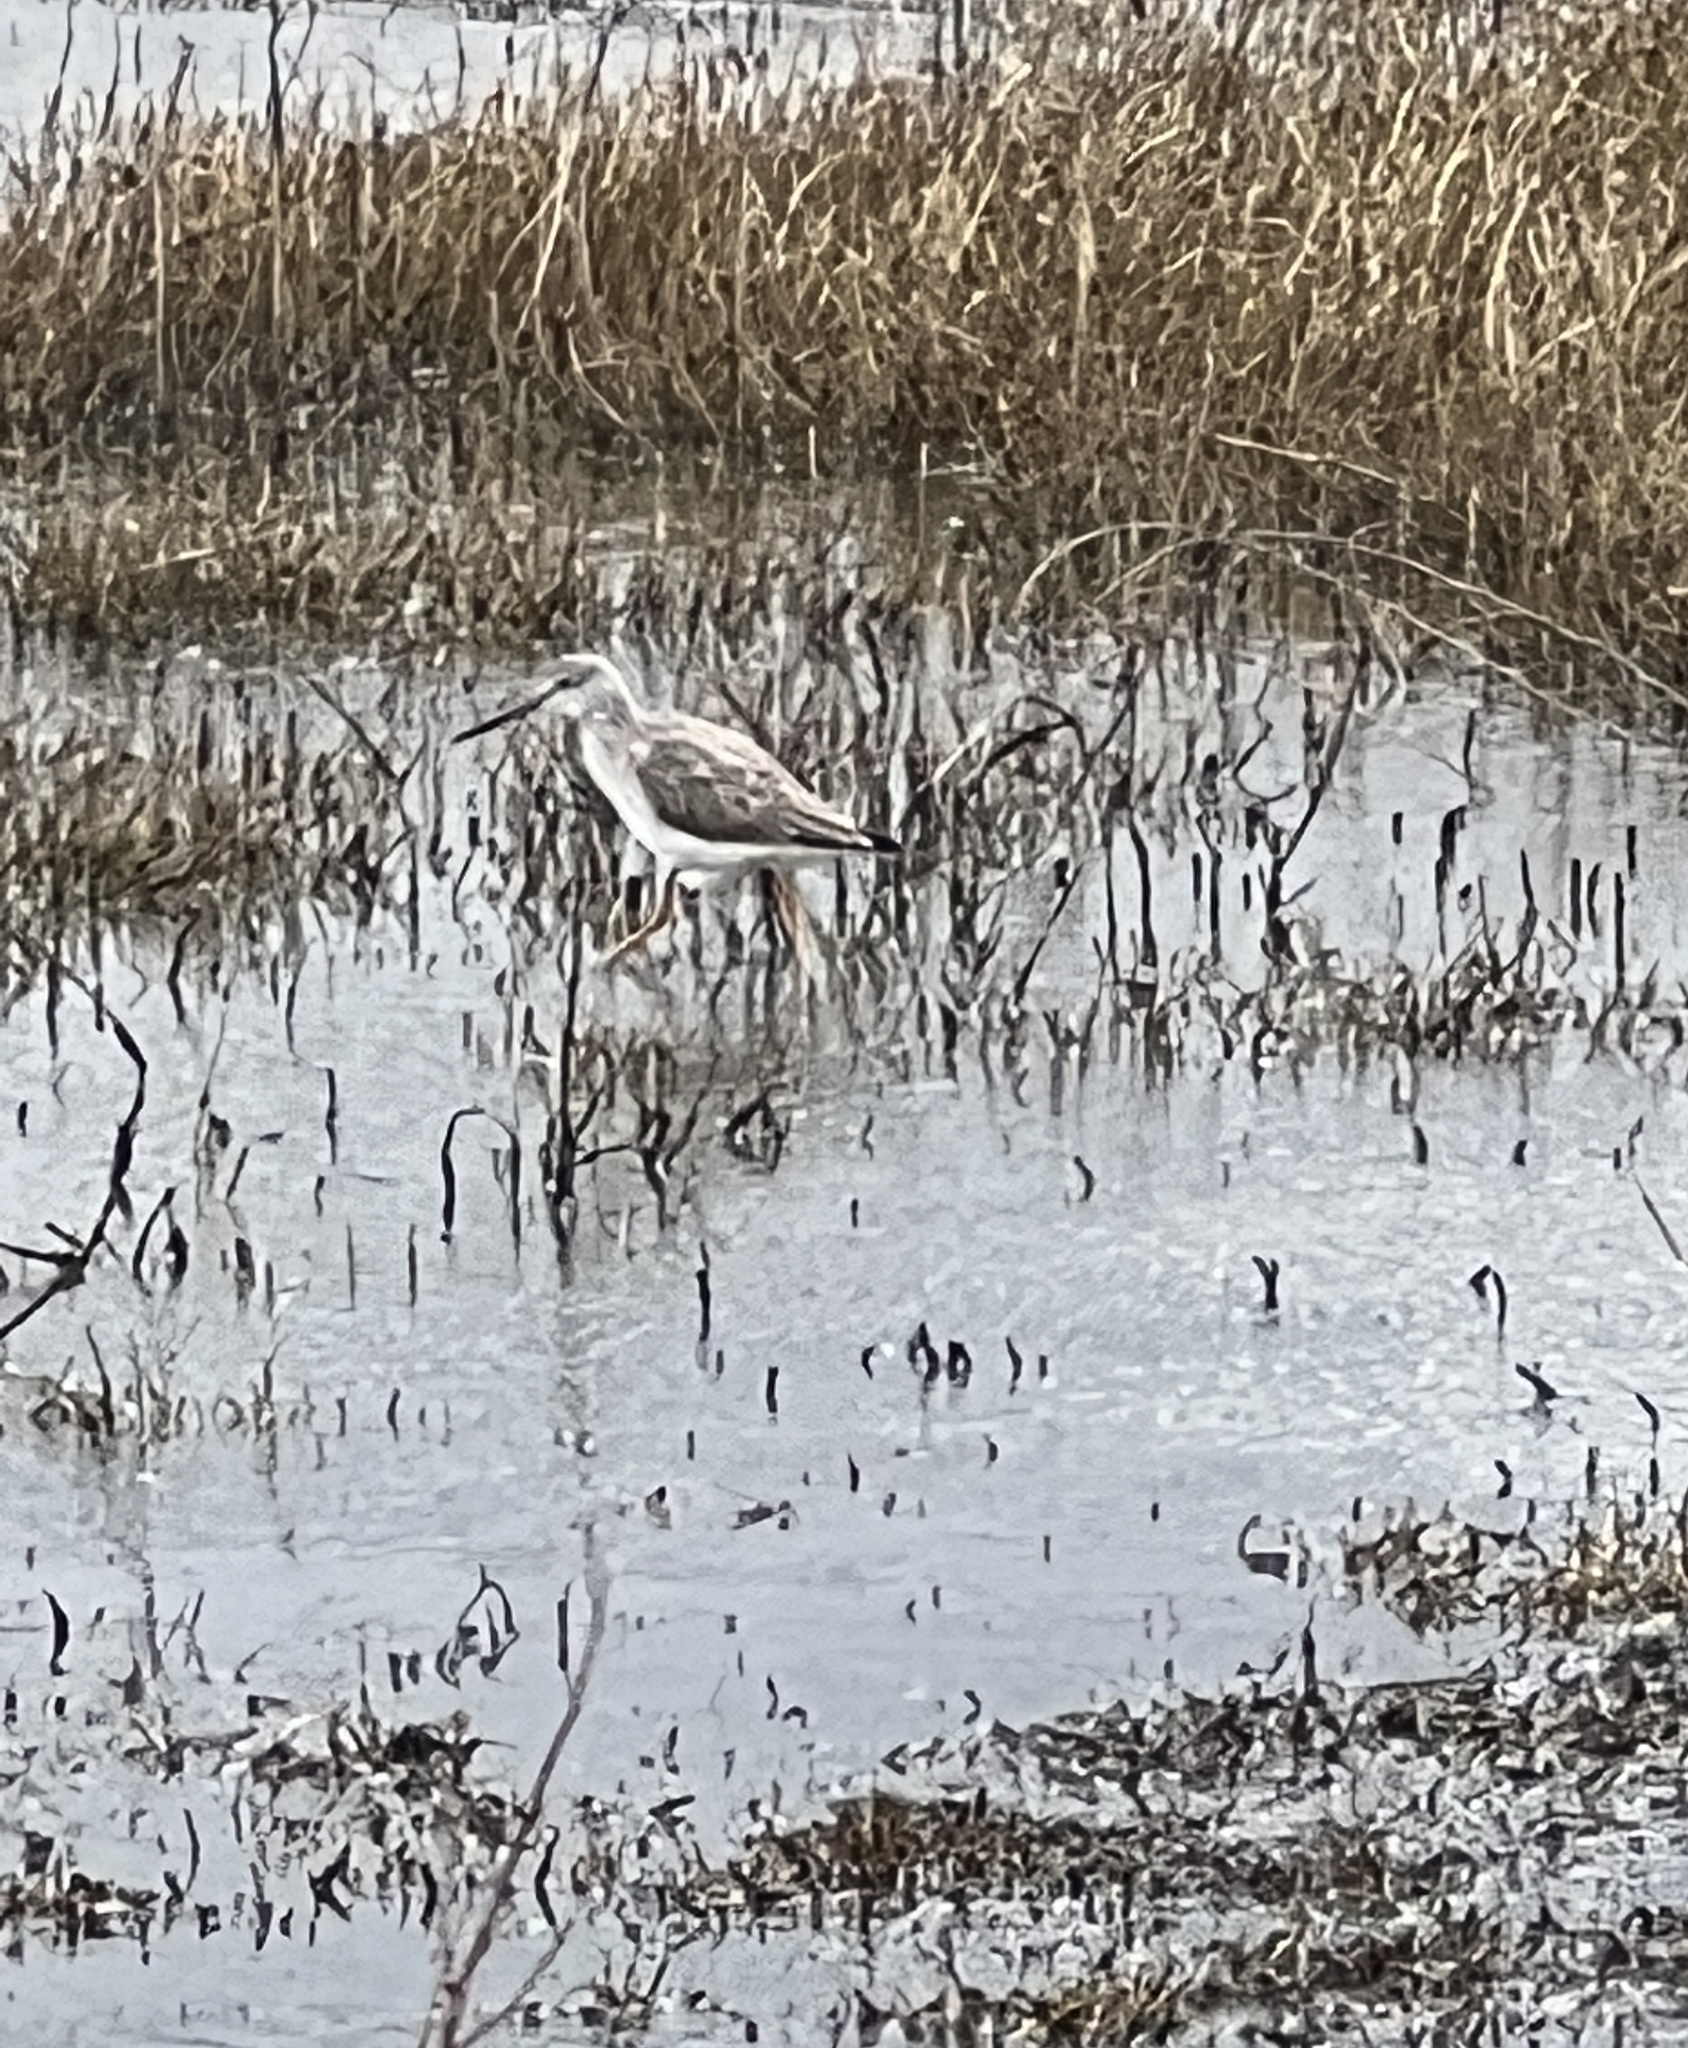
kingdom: Animalia
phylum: Chordata
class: Aves
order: Charadriiformes
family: Scolopacidae
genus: Tringa
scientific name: Tringa melanoleuca
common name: Greater yellowlegs
